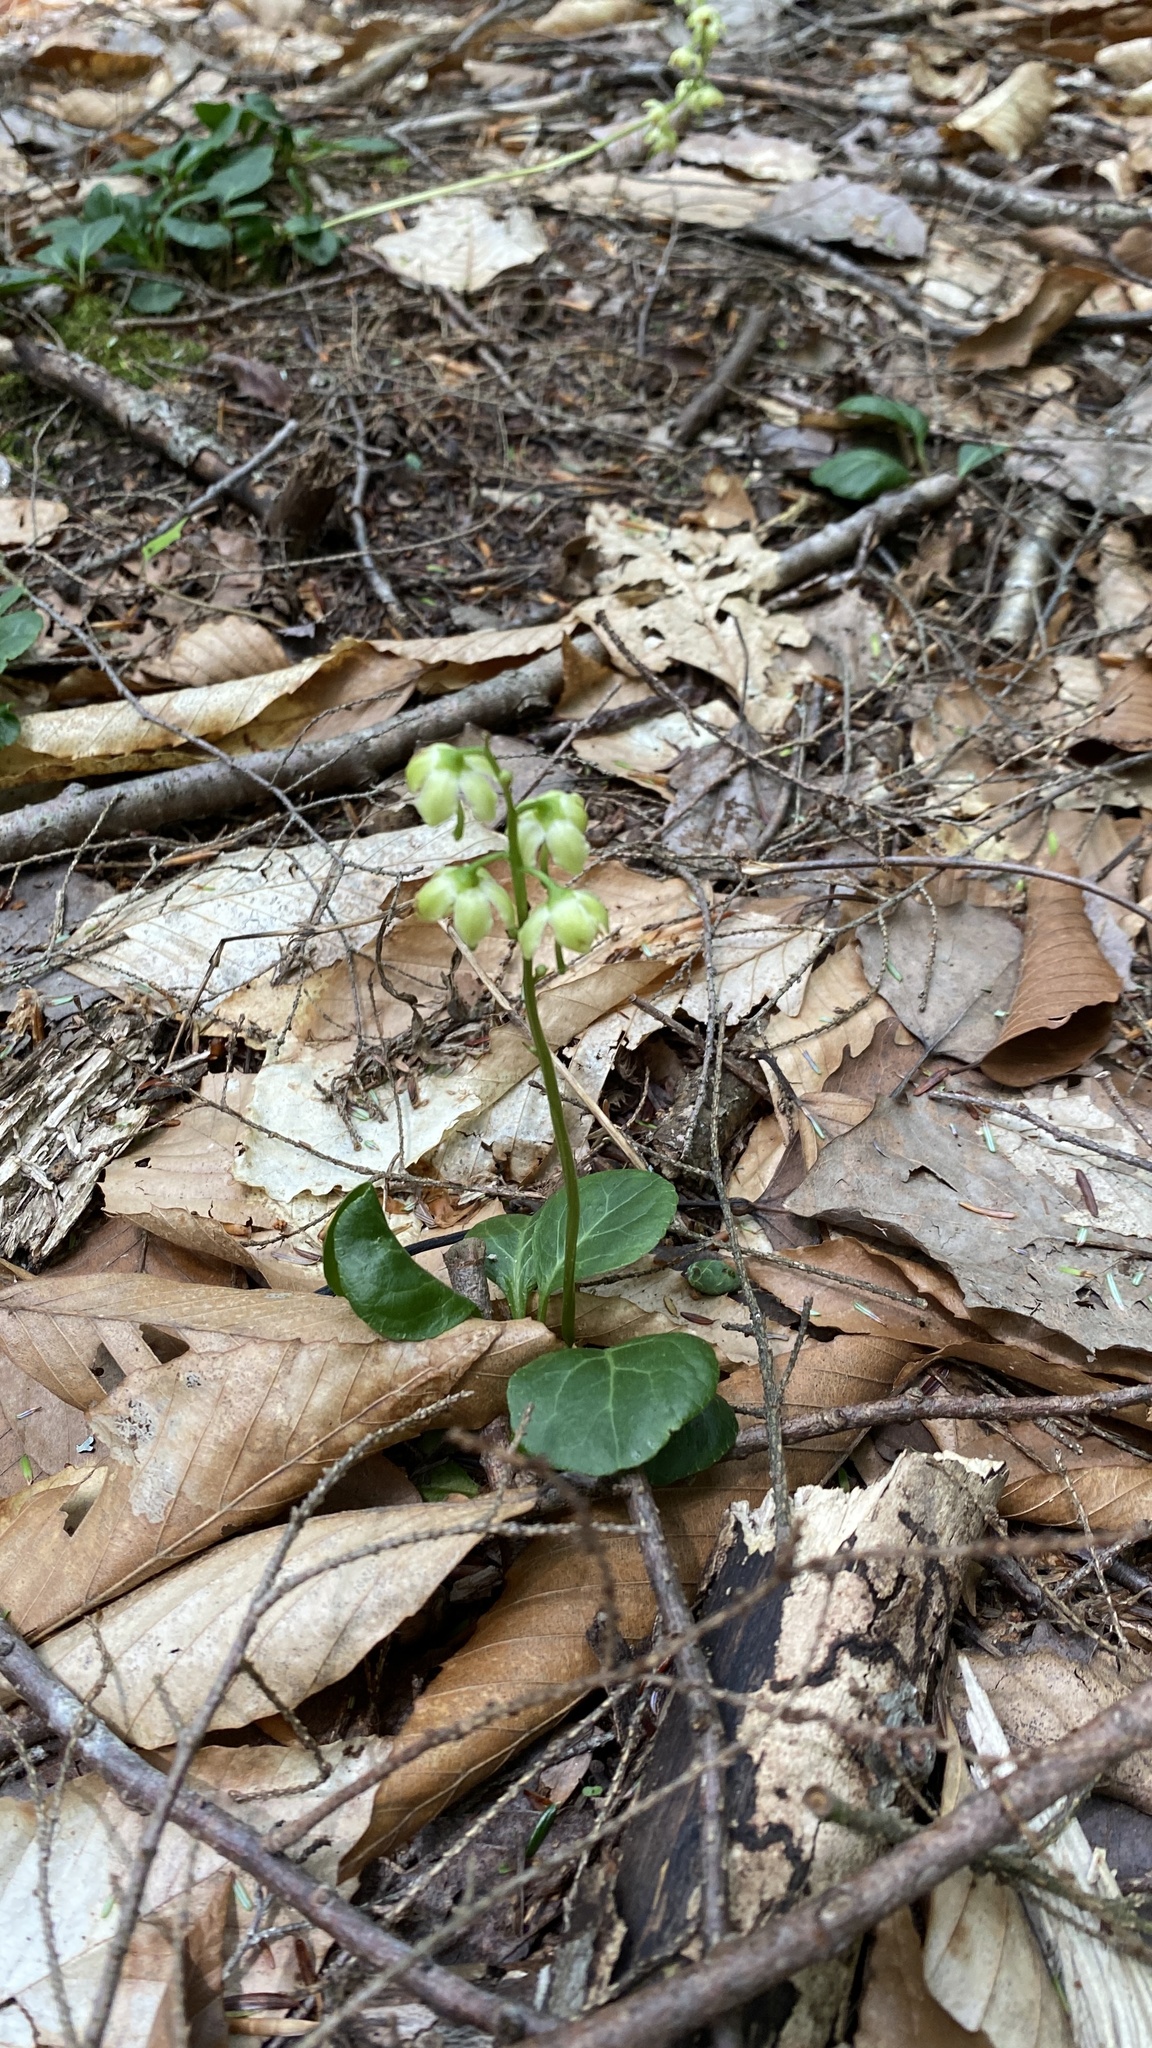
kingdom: Plantae
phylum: Tracheophyta
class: Magnoliopsida
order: Ericales
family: Ericaceae
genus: Pyrola
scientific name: Pyrola chlorantha
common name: Green wintergreen
